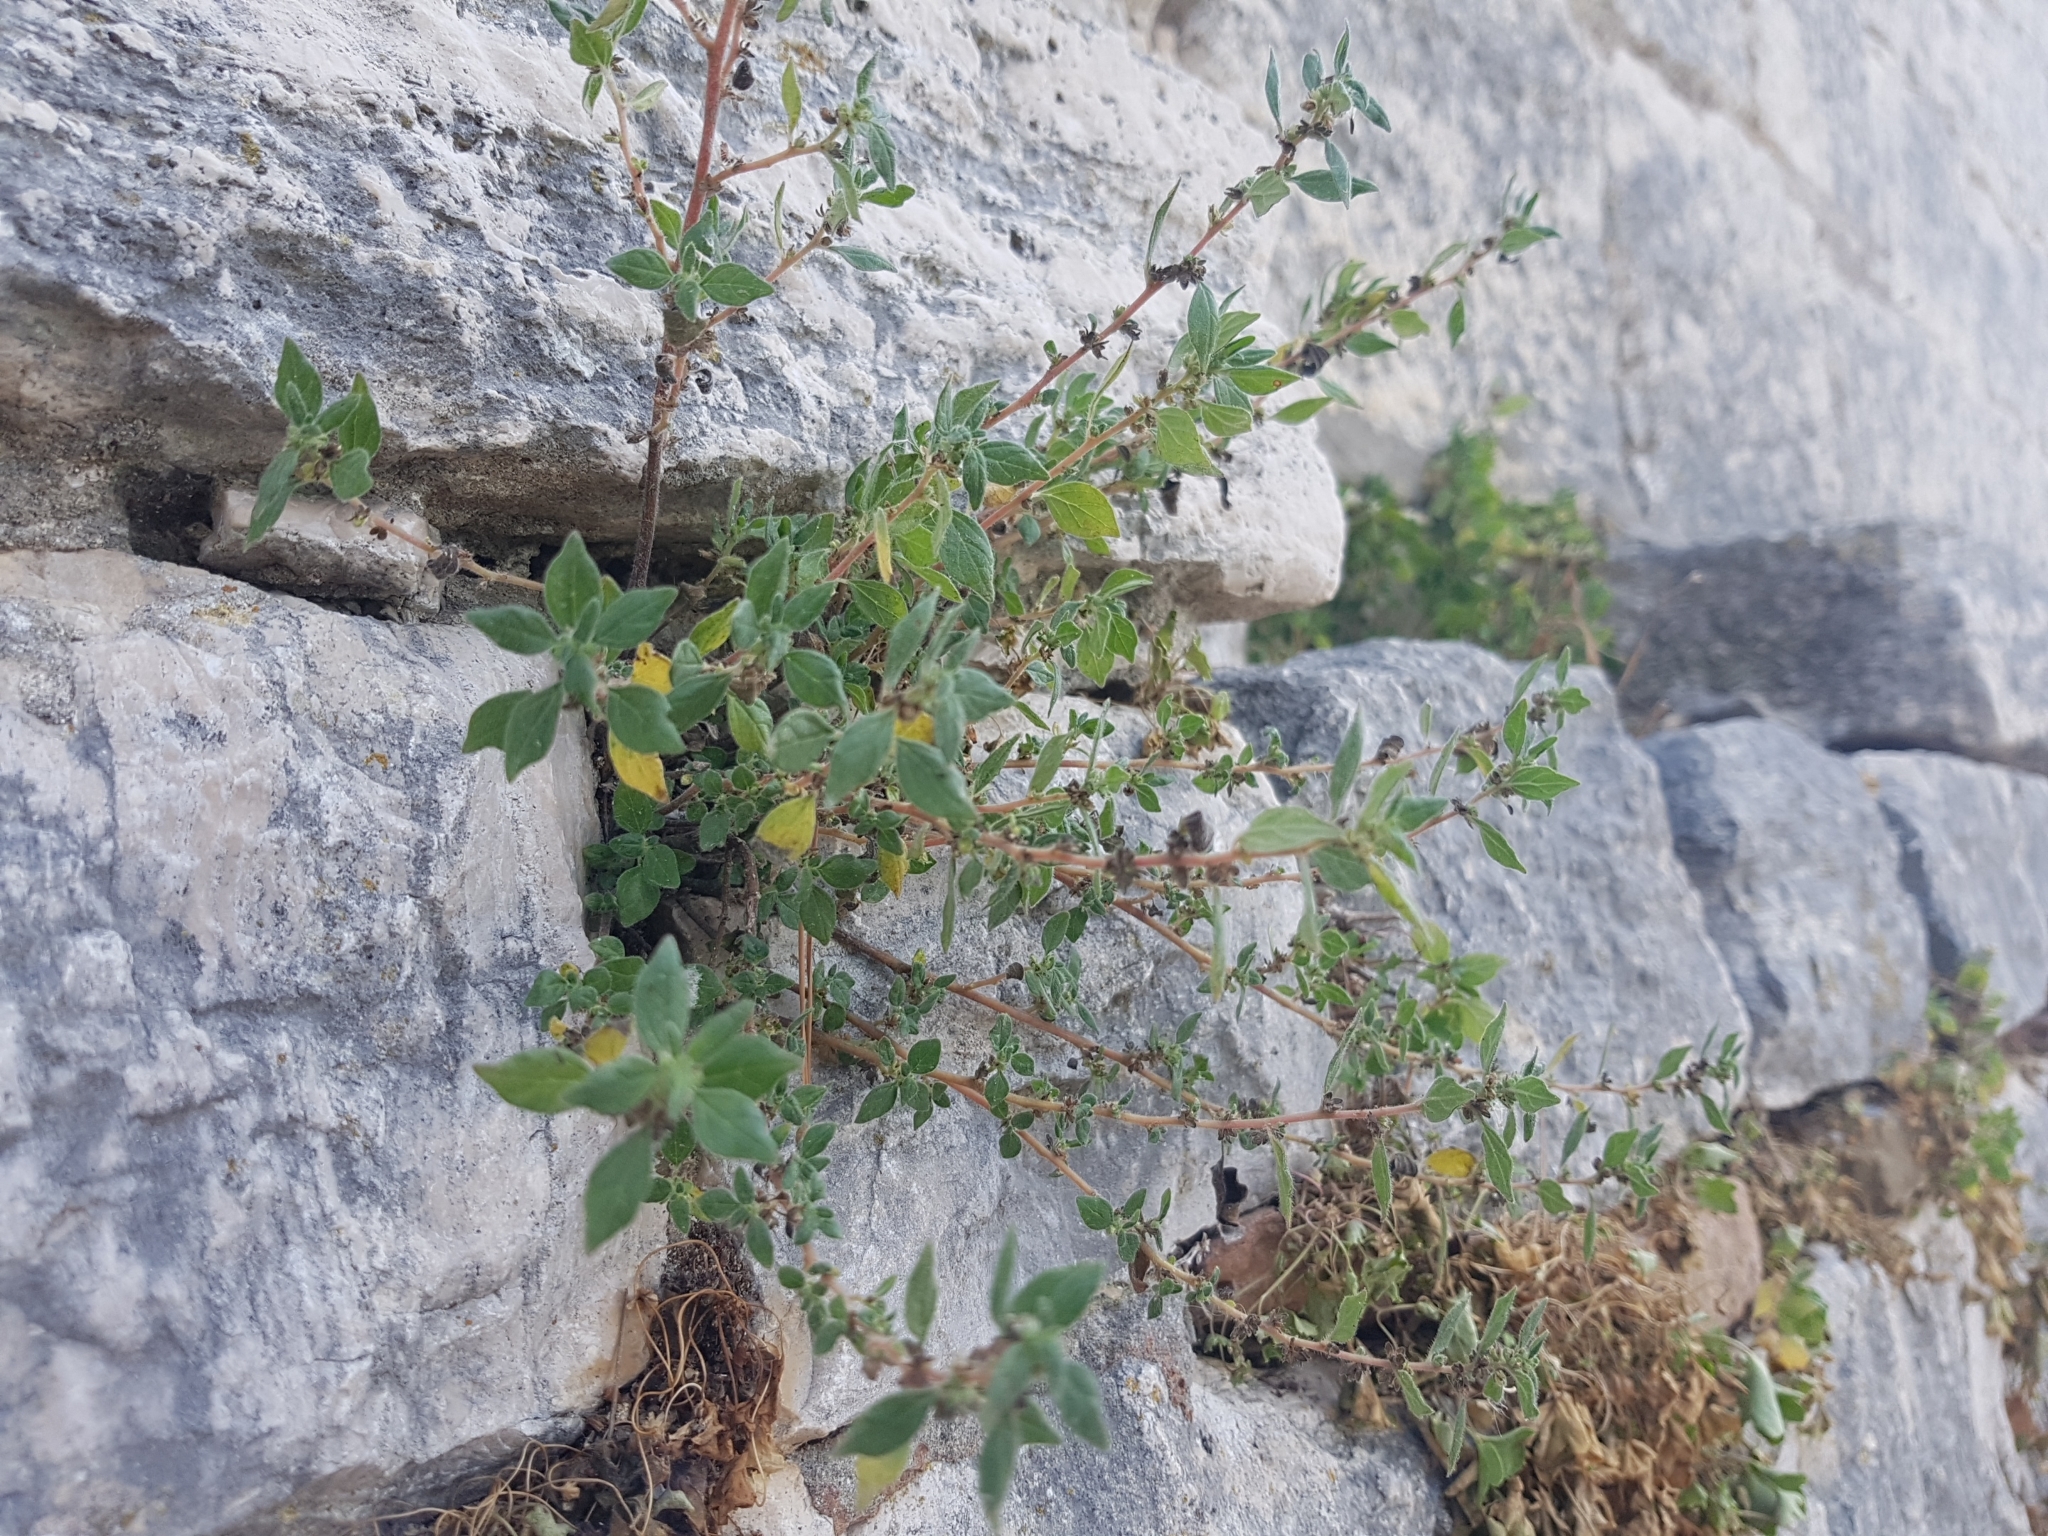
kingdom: Plantae
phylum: Tracheophyta
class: Magnoliopsida
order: Rosales
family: Urticaceae
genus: Parietaria
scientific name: Parietaria judaica
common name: Pellitory-of-the-wall
